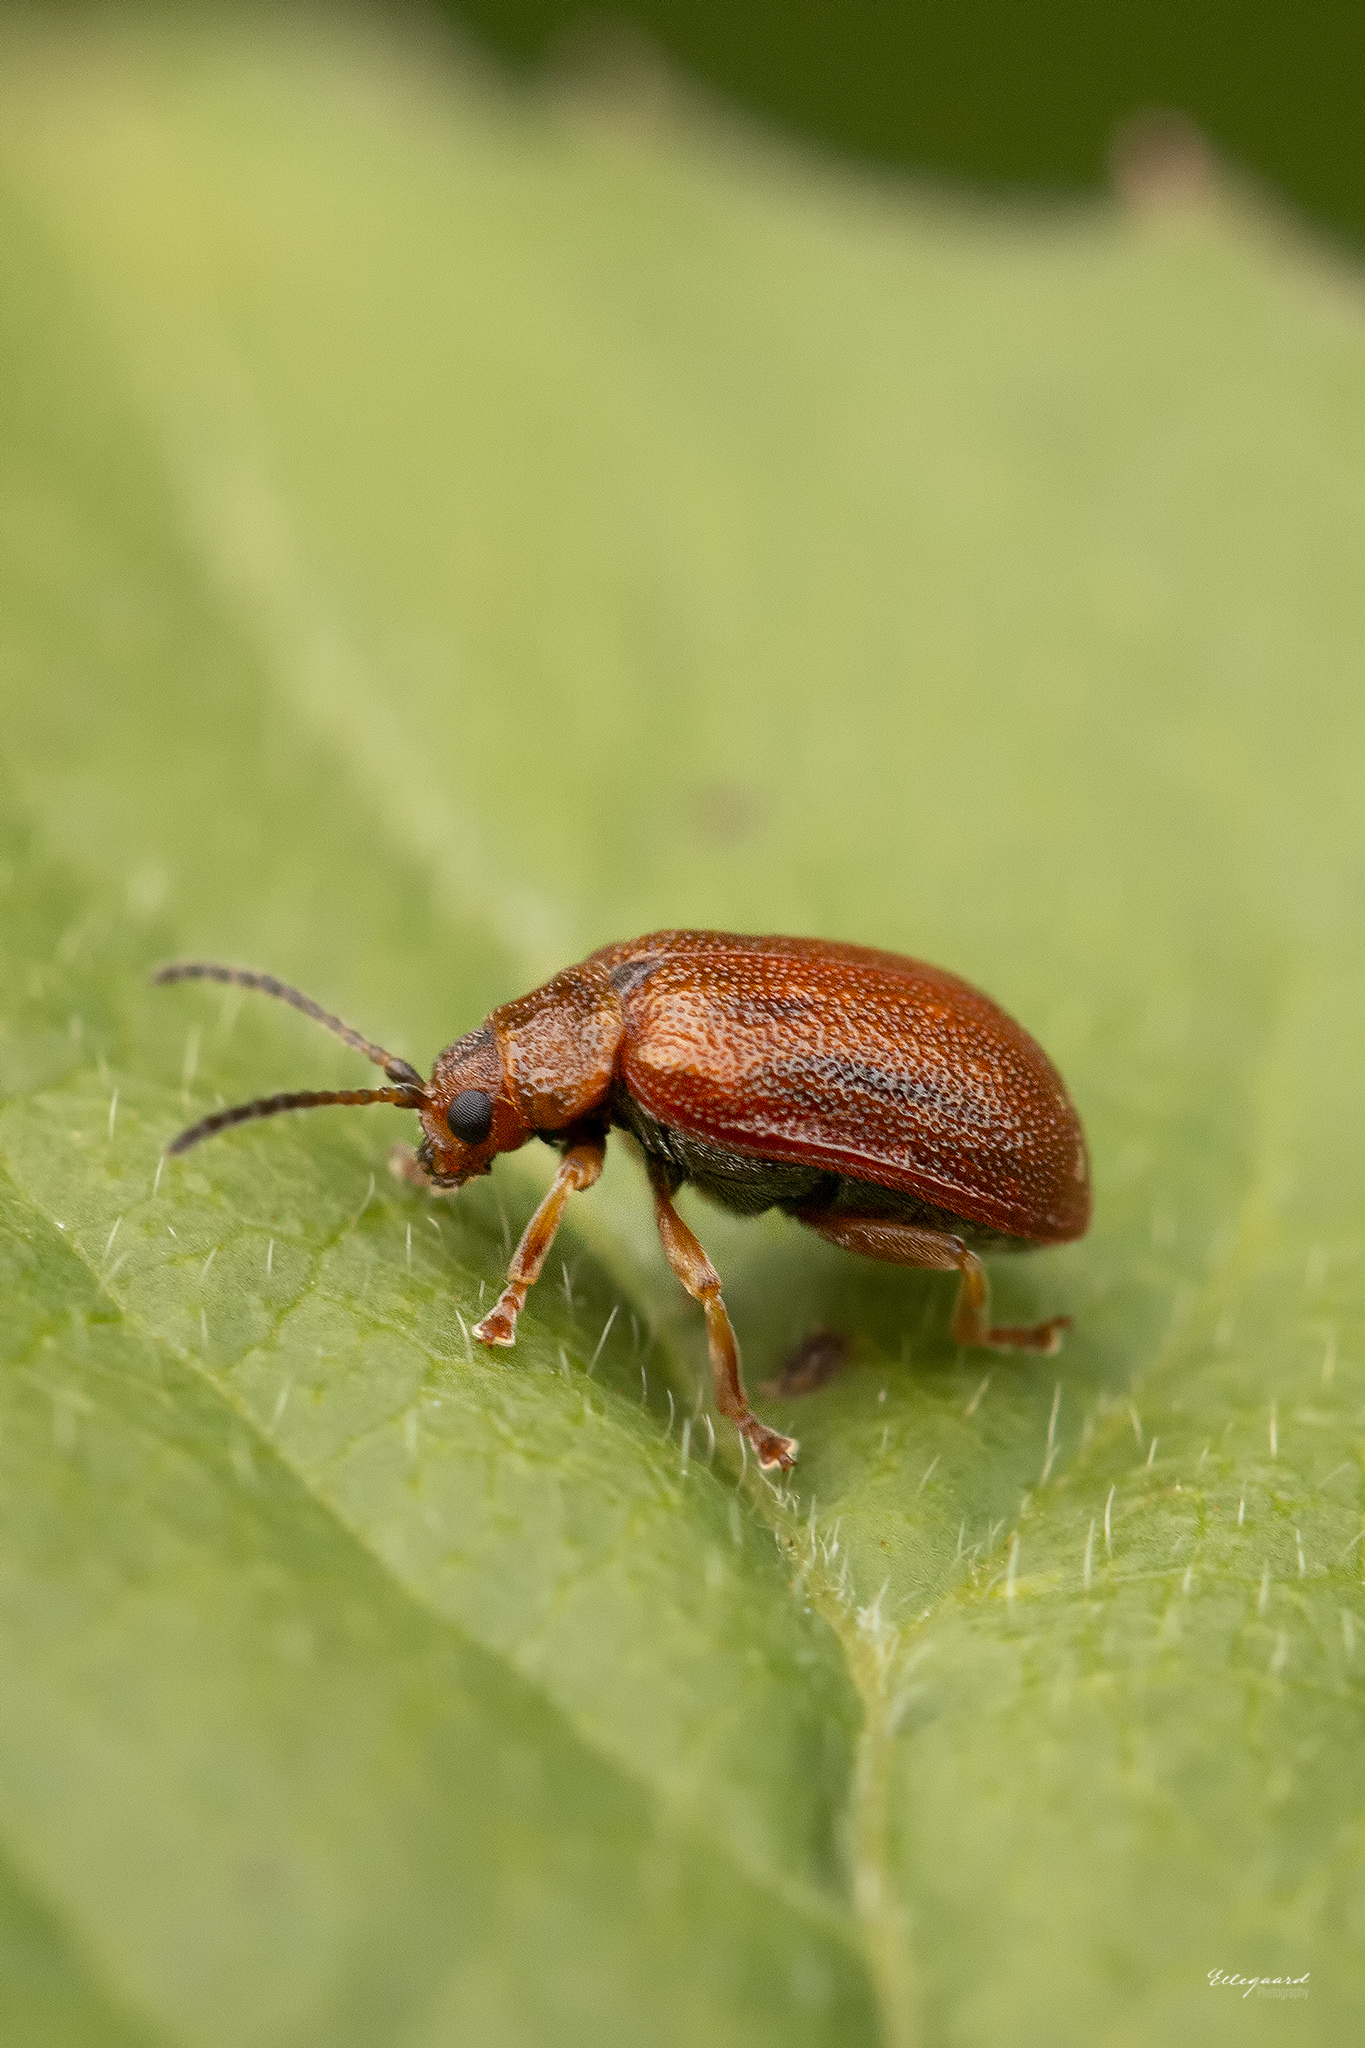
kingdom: Animalia
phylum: Arthropoda
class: Insecta
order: Coleoptera
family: Chrysomelidae
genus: Lochmaea
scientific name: Lochmaea crataegi
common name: Hawthorn leaf beetle
